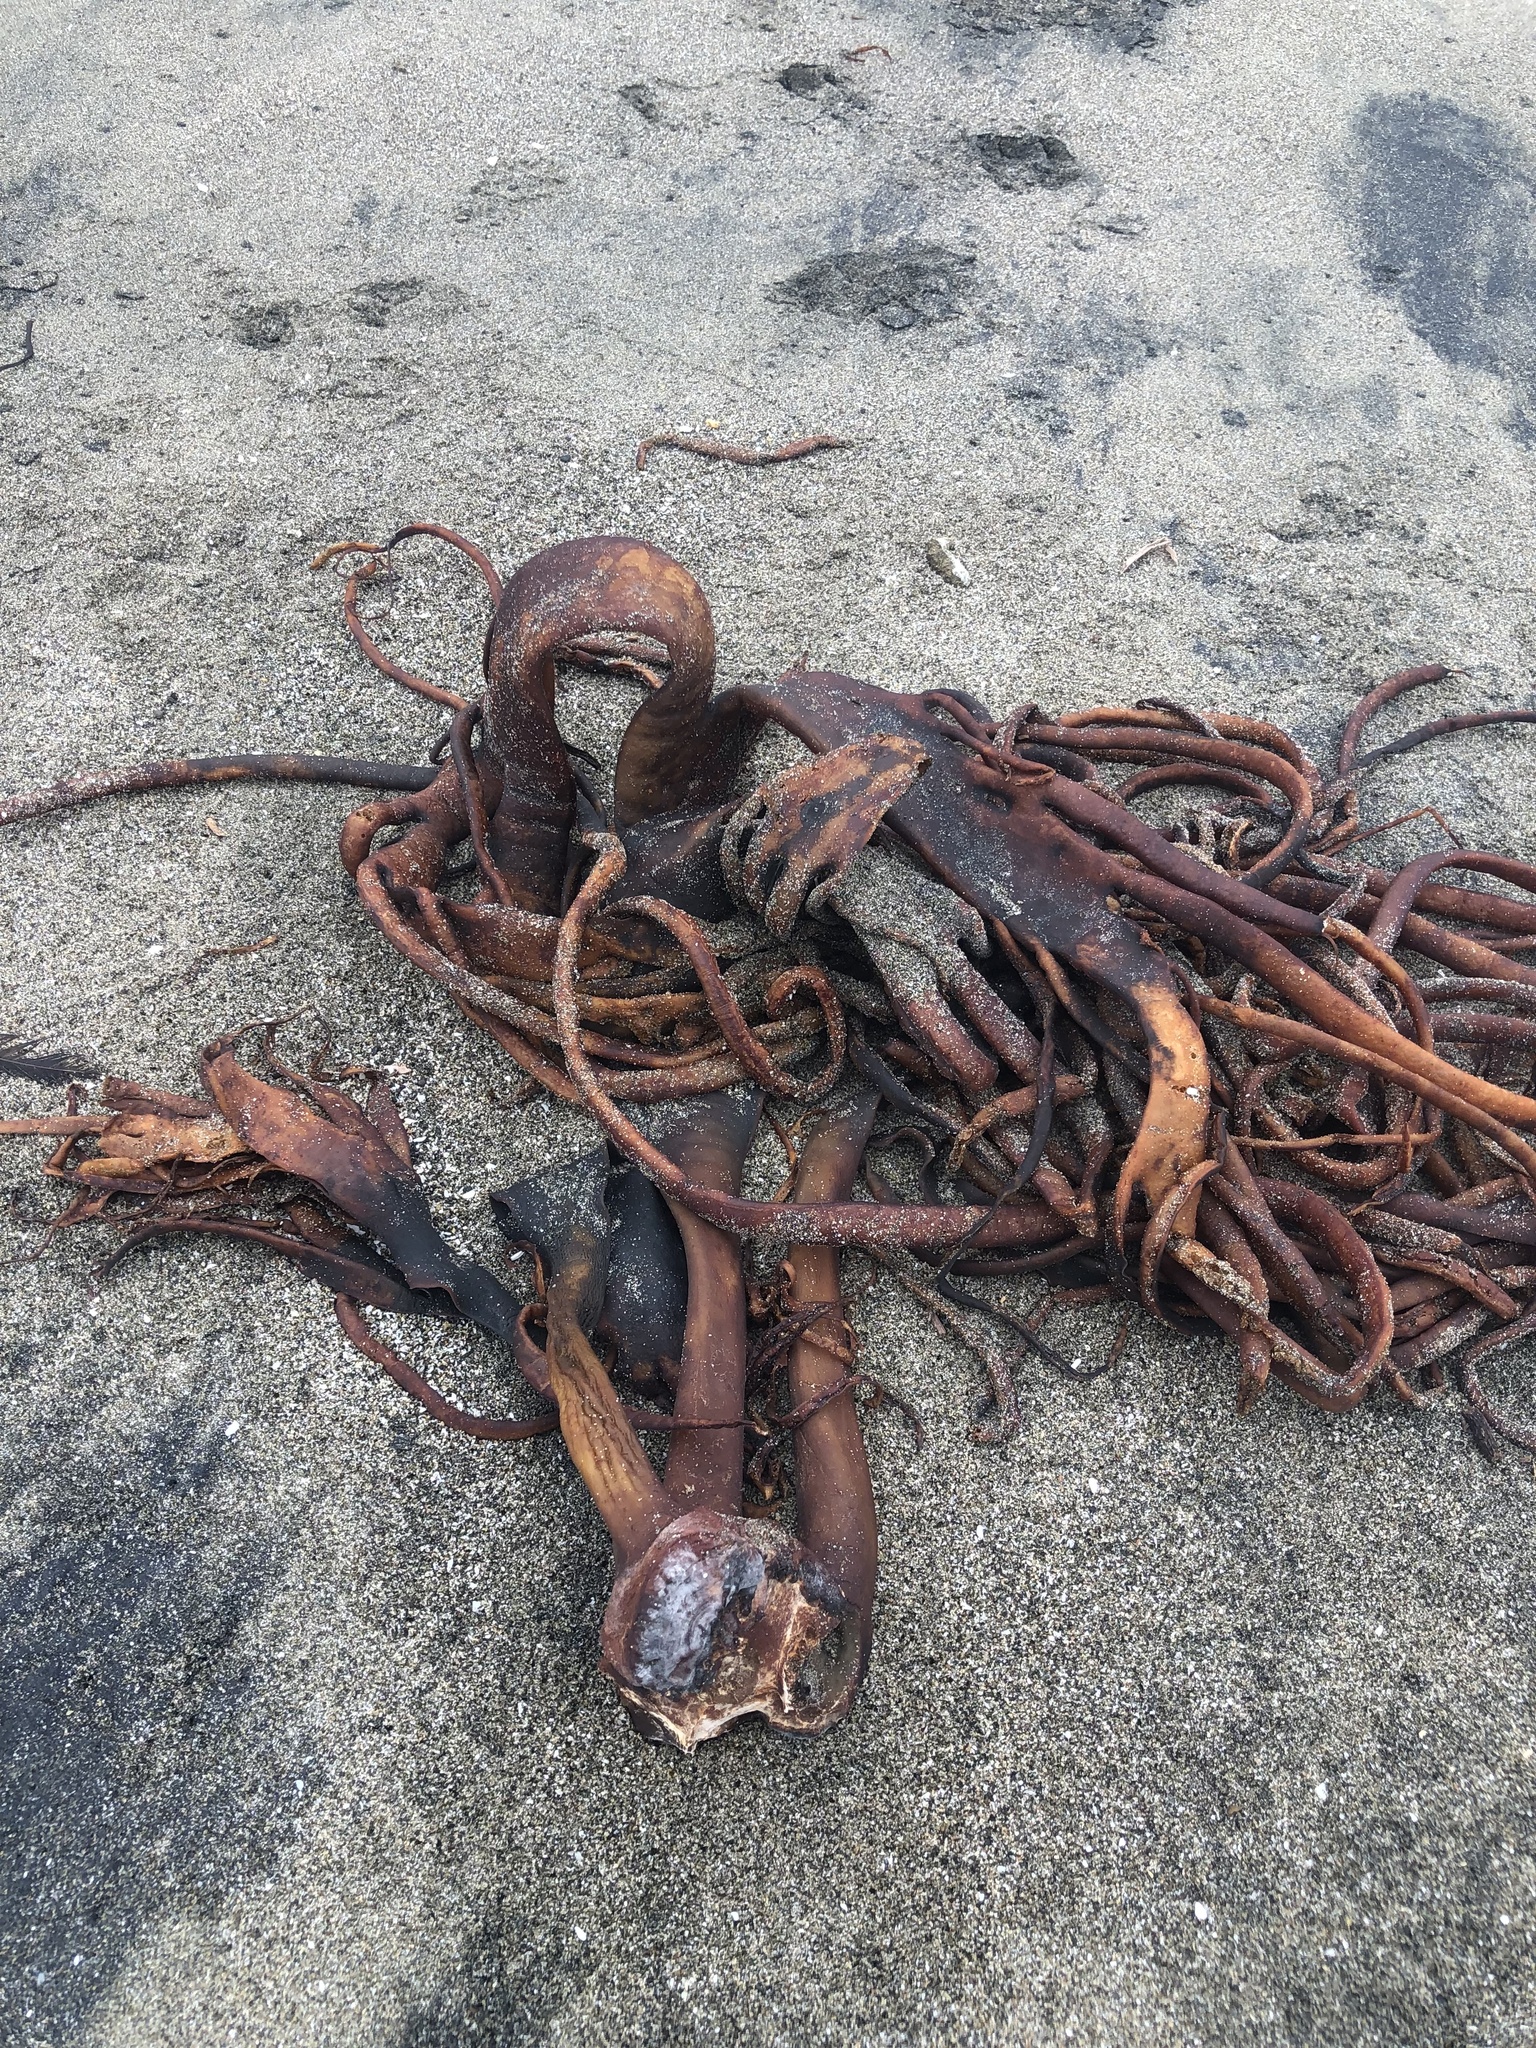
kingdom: Chromista
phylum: Ochrophyta
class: Phaeophyceae
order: Fucales
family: Durvillaeaceae
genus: Durvillaea
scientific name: Durvillaea
